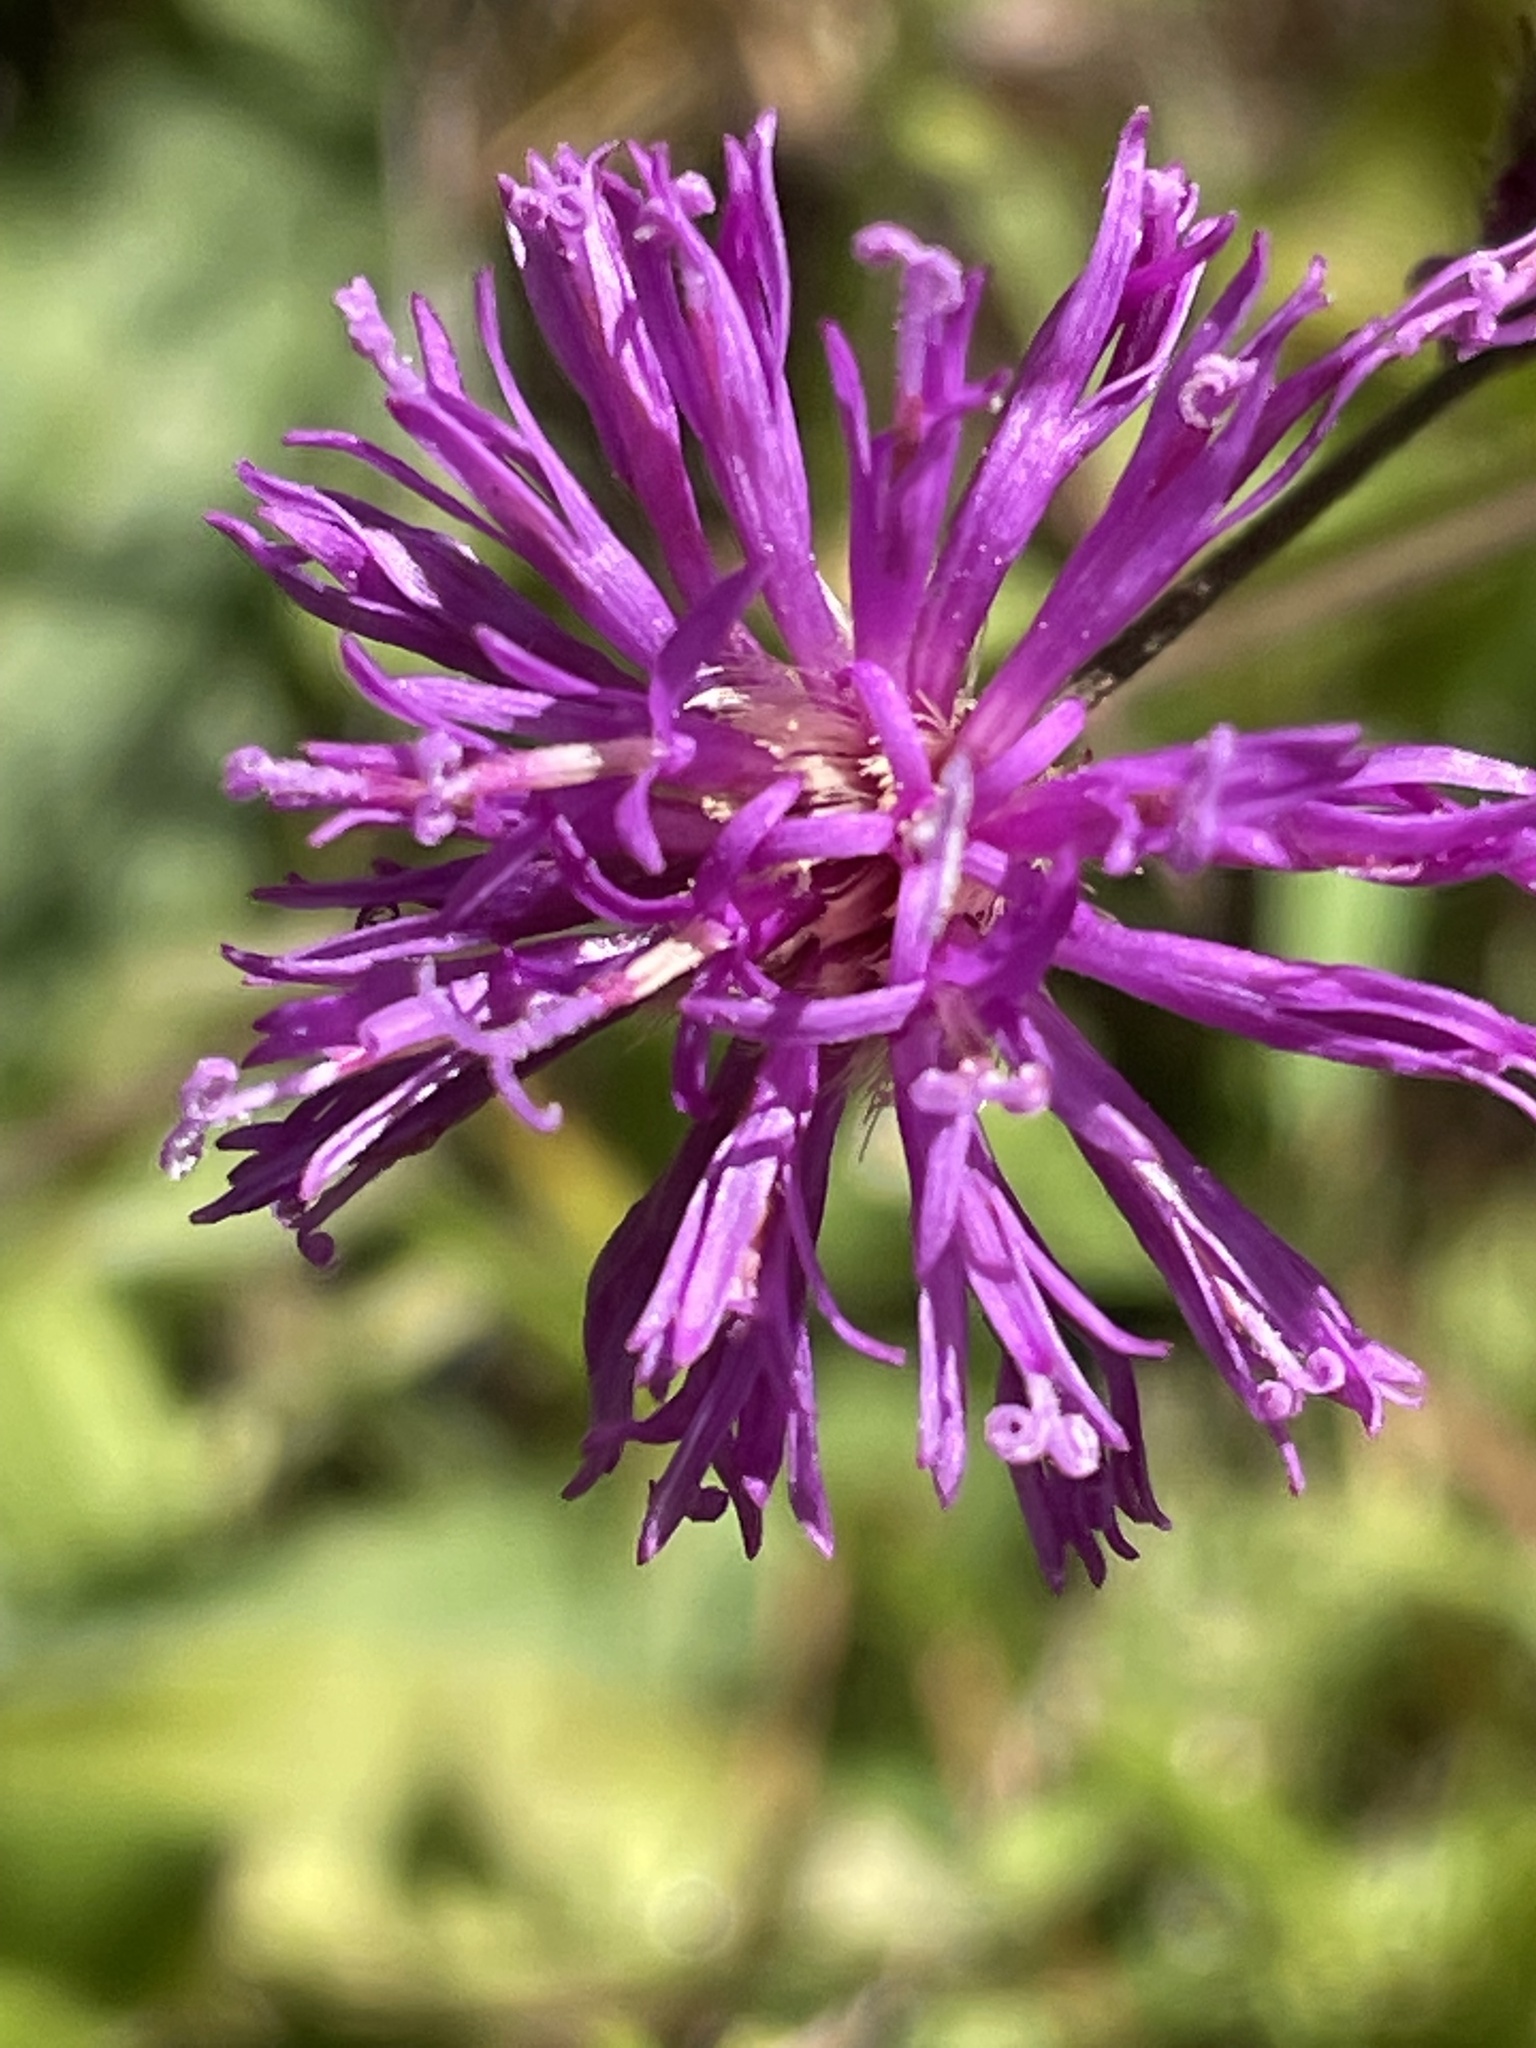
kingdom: Plantae
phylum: Tracheophyta
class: Magnoliopsida
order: Asterales
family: Asteraceae
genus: Vernonia
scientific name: Vernonia acaulis
